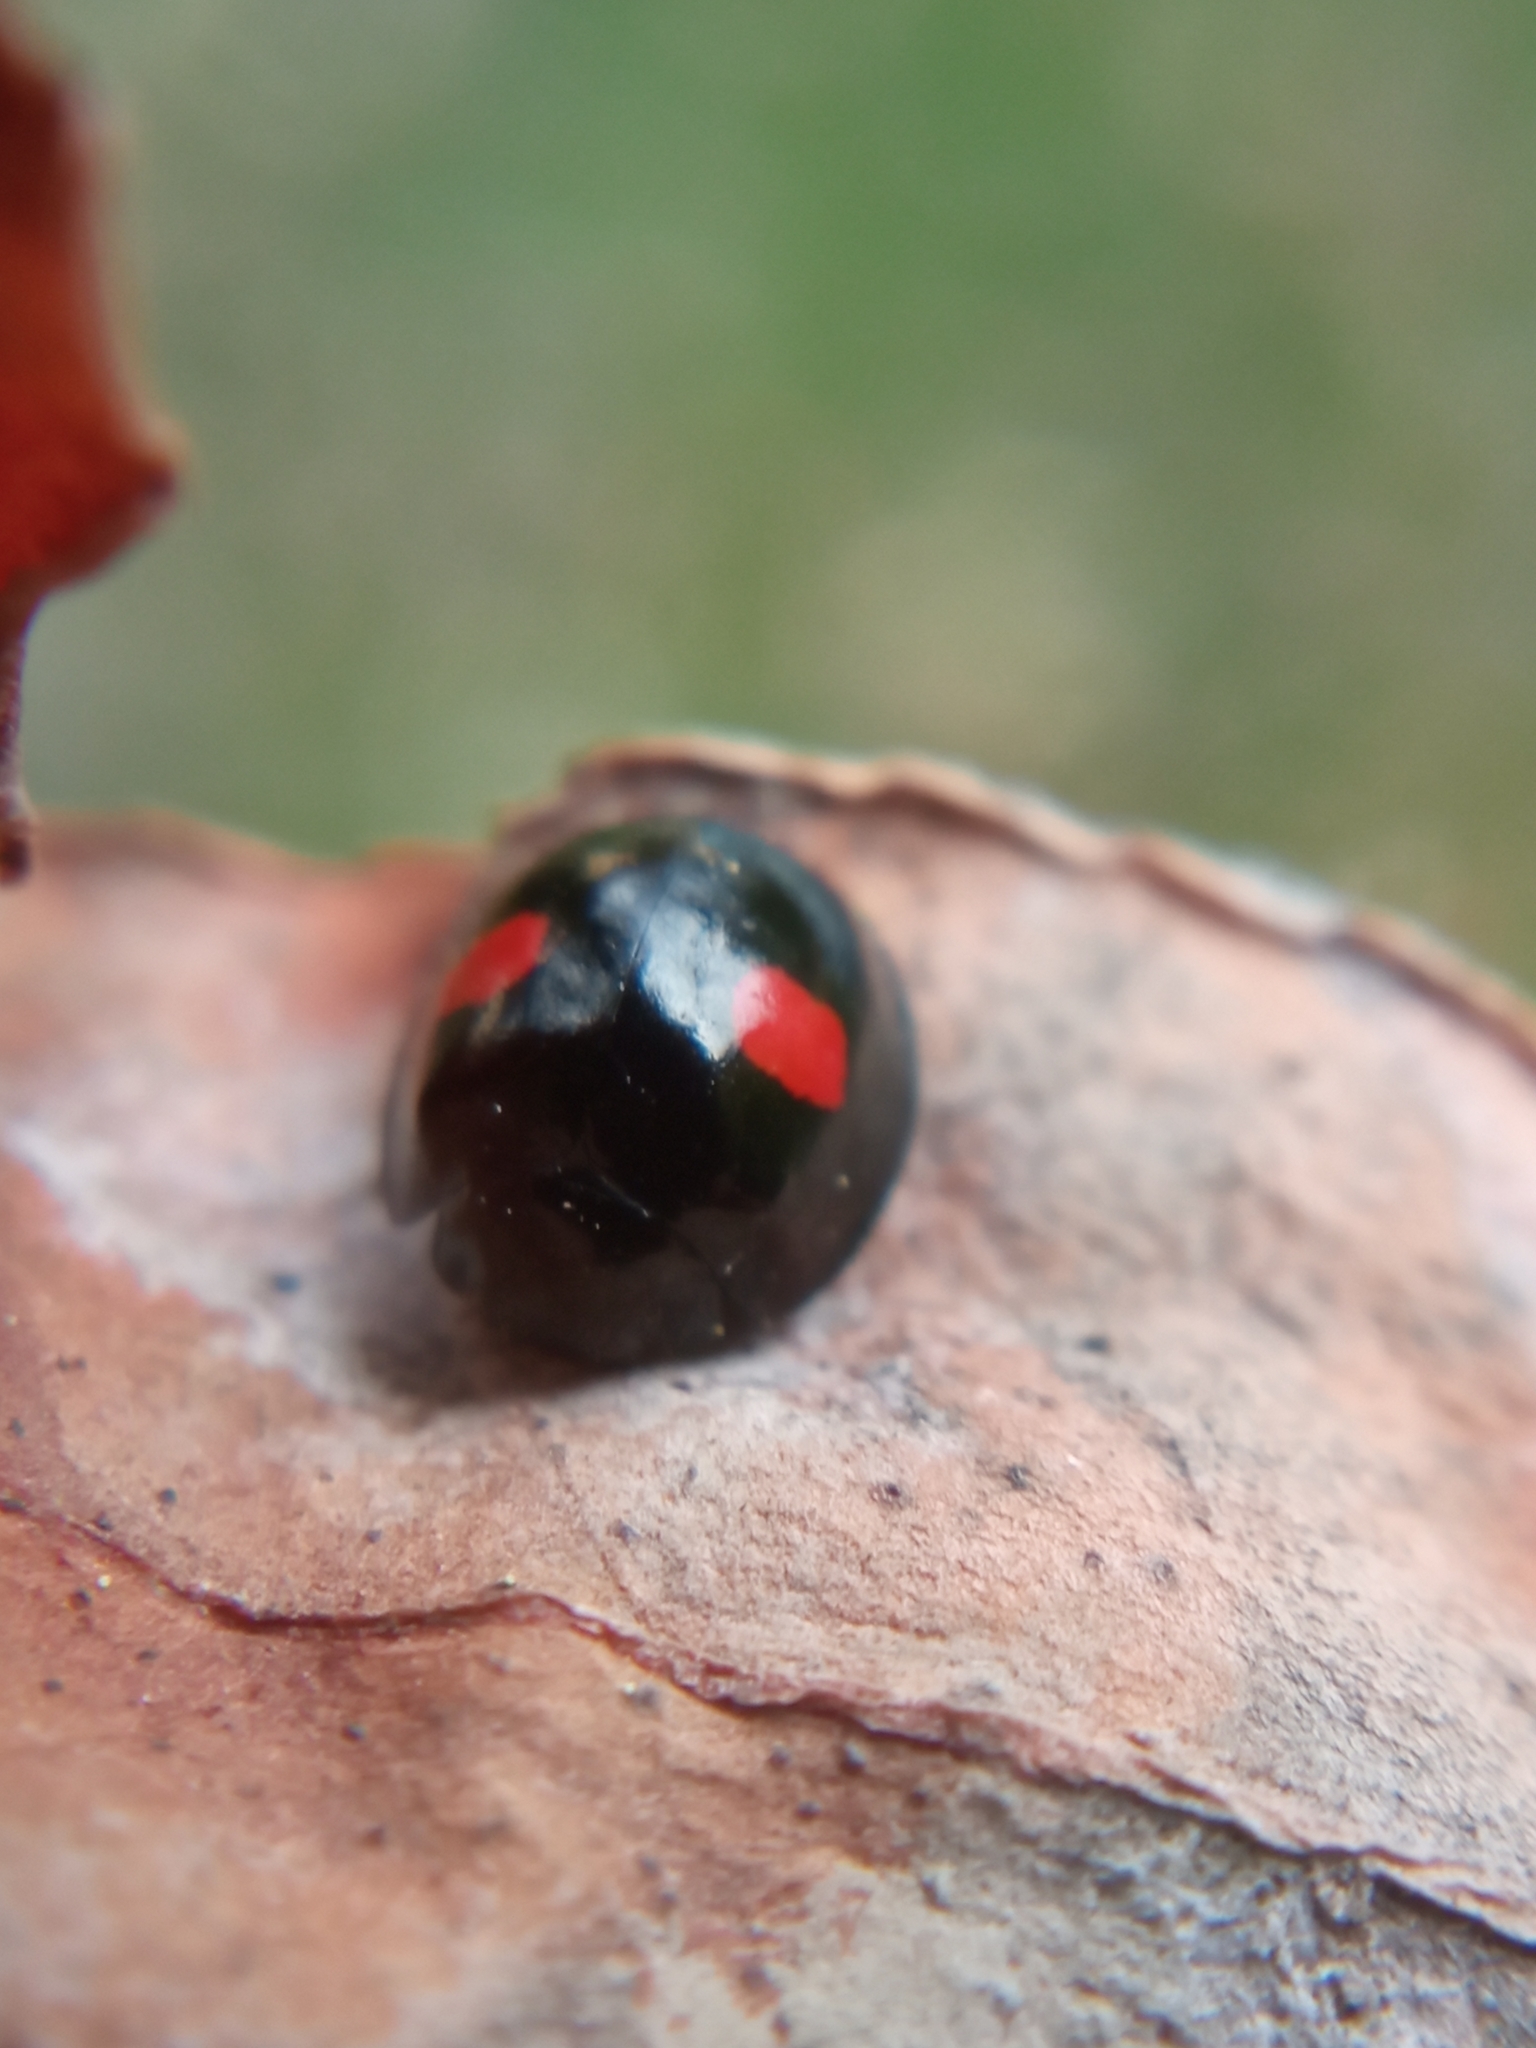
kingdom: Animalia
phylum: Arthropoda
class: Insecta
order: Coleoptera
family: Coccinellidae
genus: Chilocorus
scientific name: Chilocorus renipustulatus
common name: Kidney-spot ladybird
